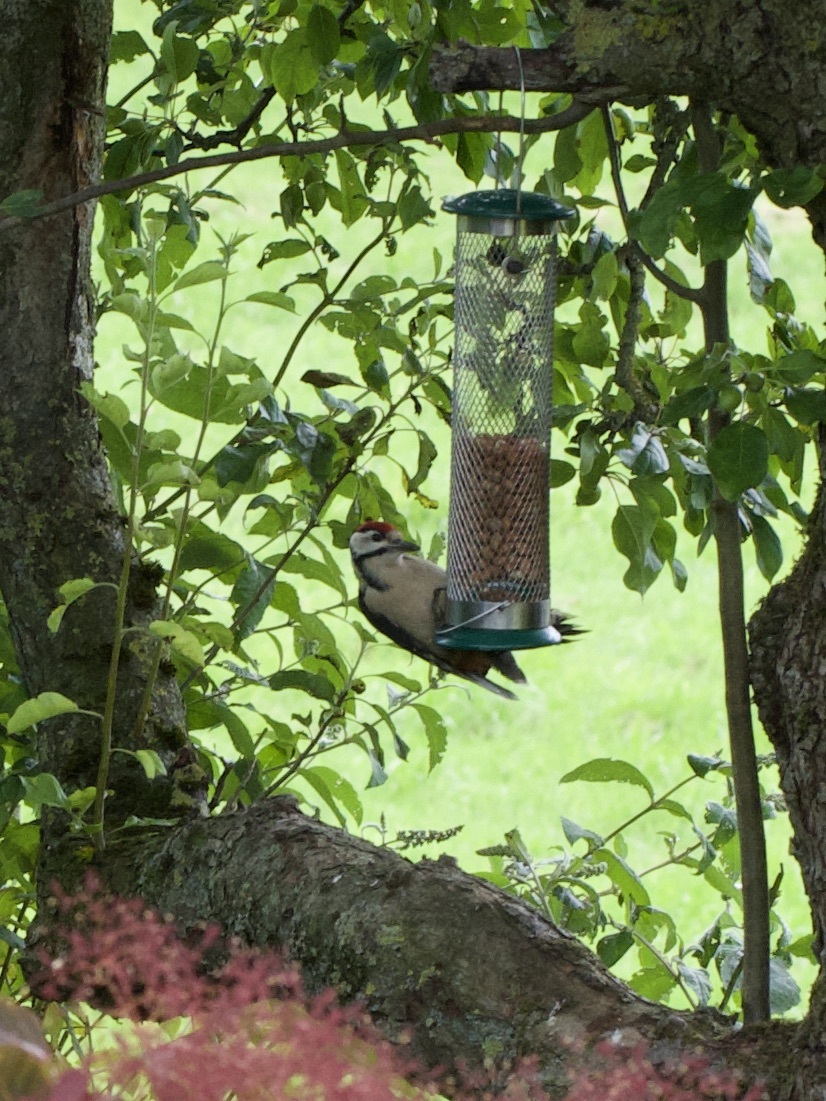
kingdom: Animalia
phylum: Chordata
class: Aves
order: Piciformes
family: Picidae
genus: Dendrocopos
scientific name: Dendrocopos major
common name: Great spotted woodpecker
